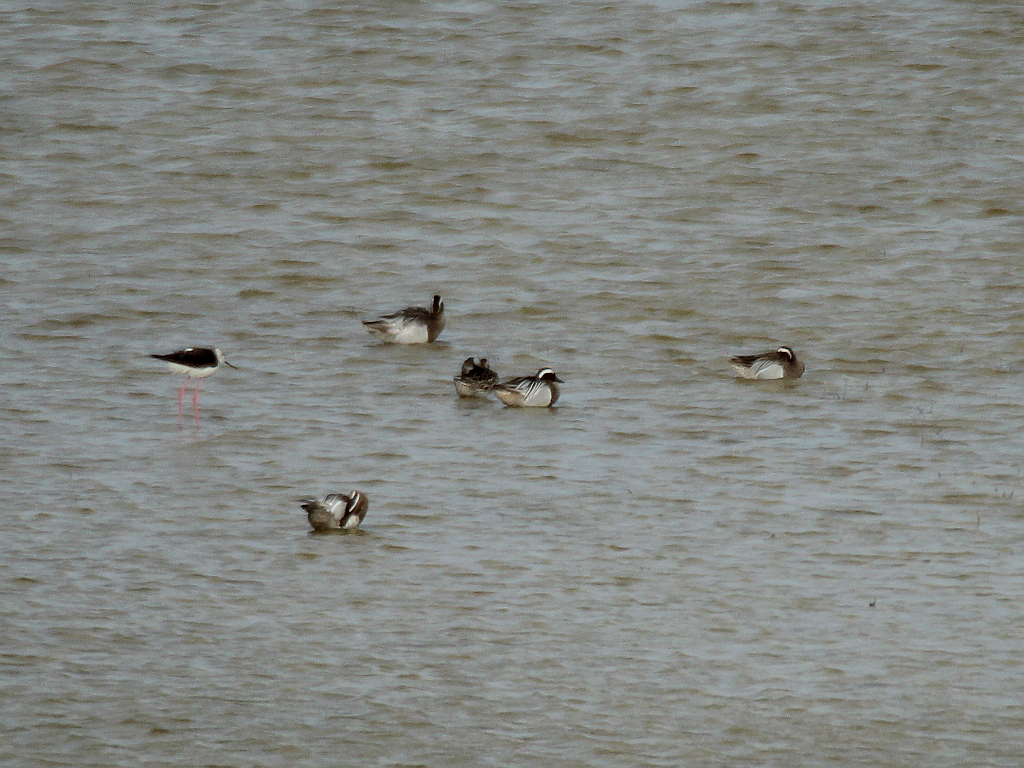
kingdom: Animalia
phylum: Chordata
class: Aves
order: Anseriformes
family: Anatidae
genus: Spatula
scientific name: Spatula querquedula
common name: Garganey
